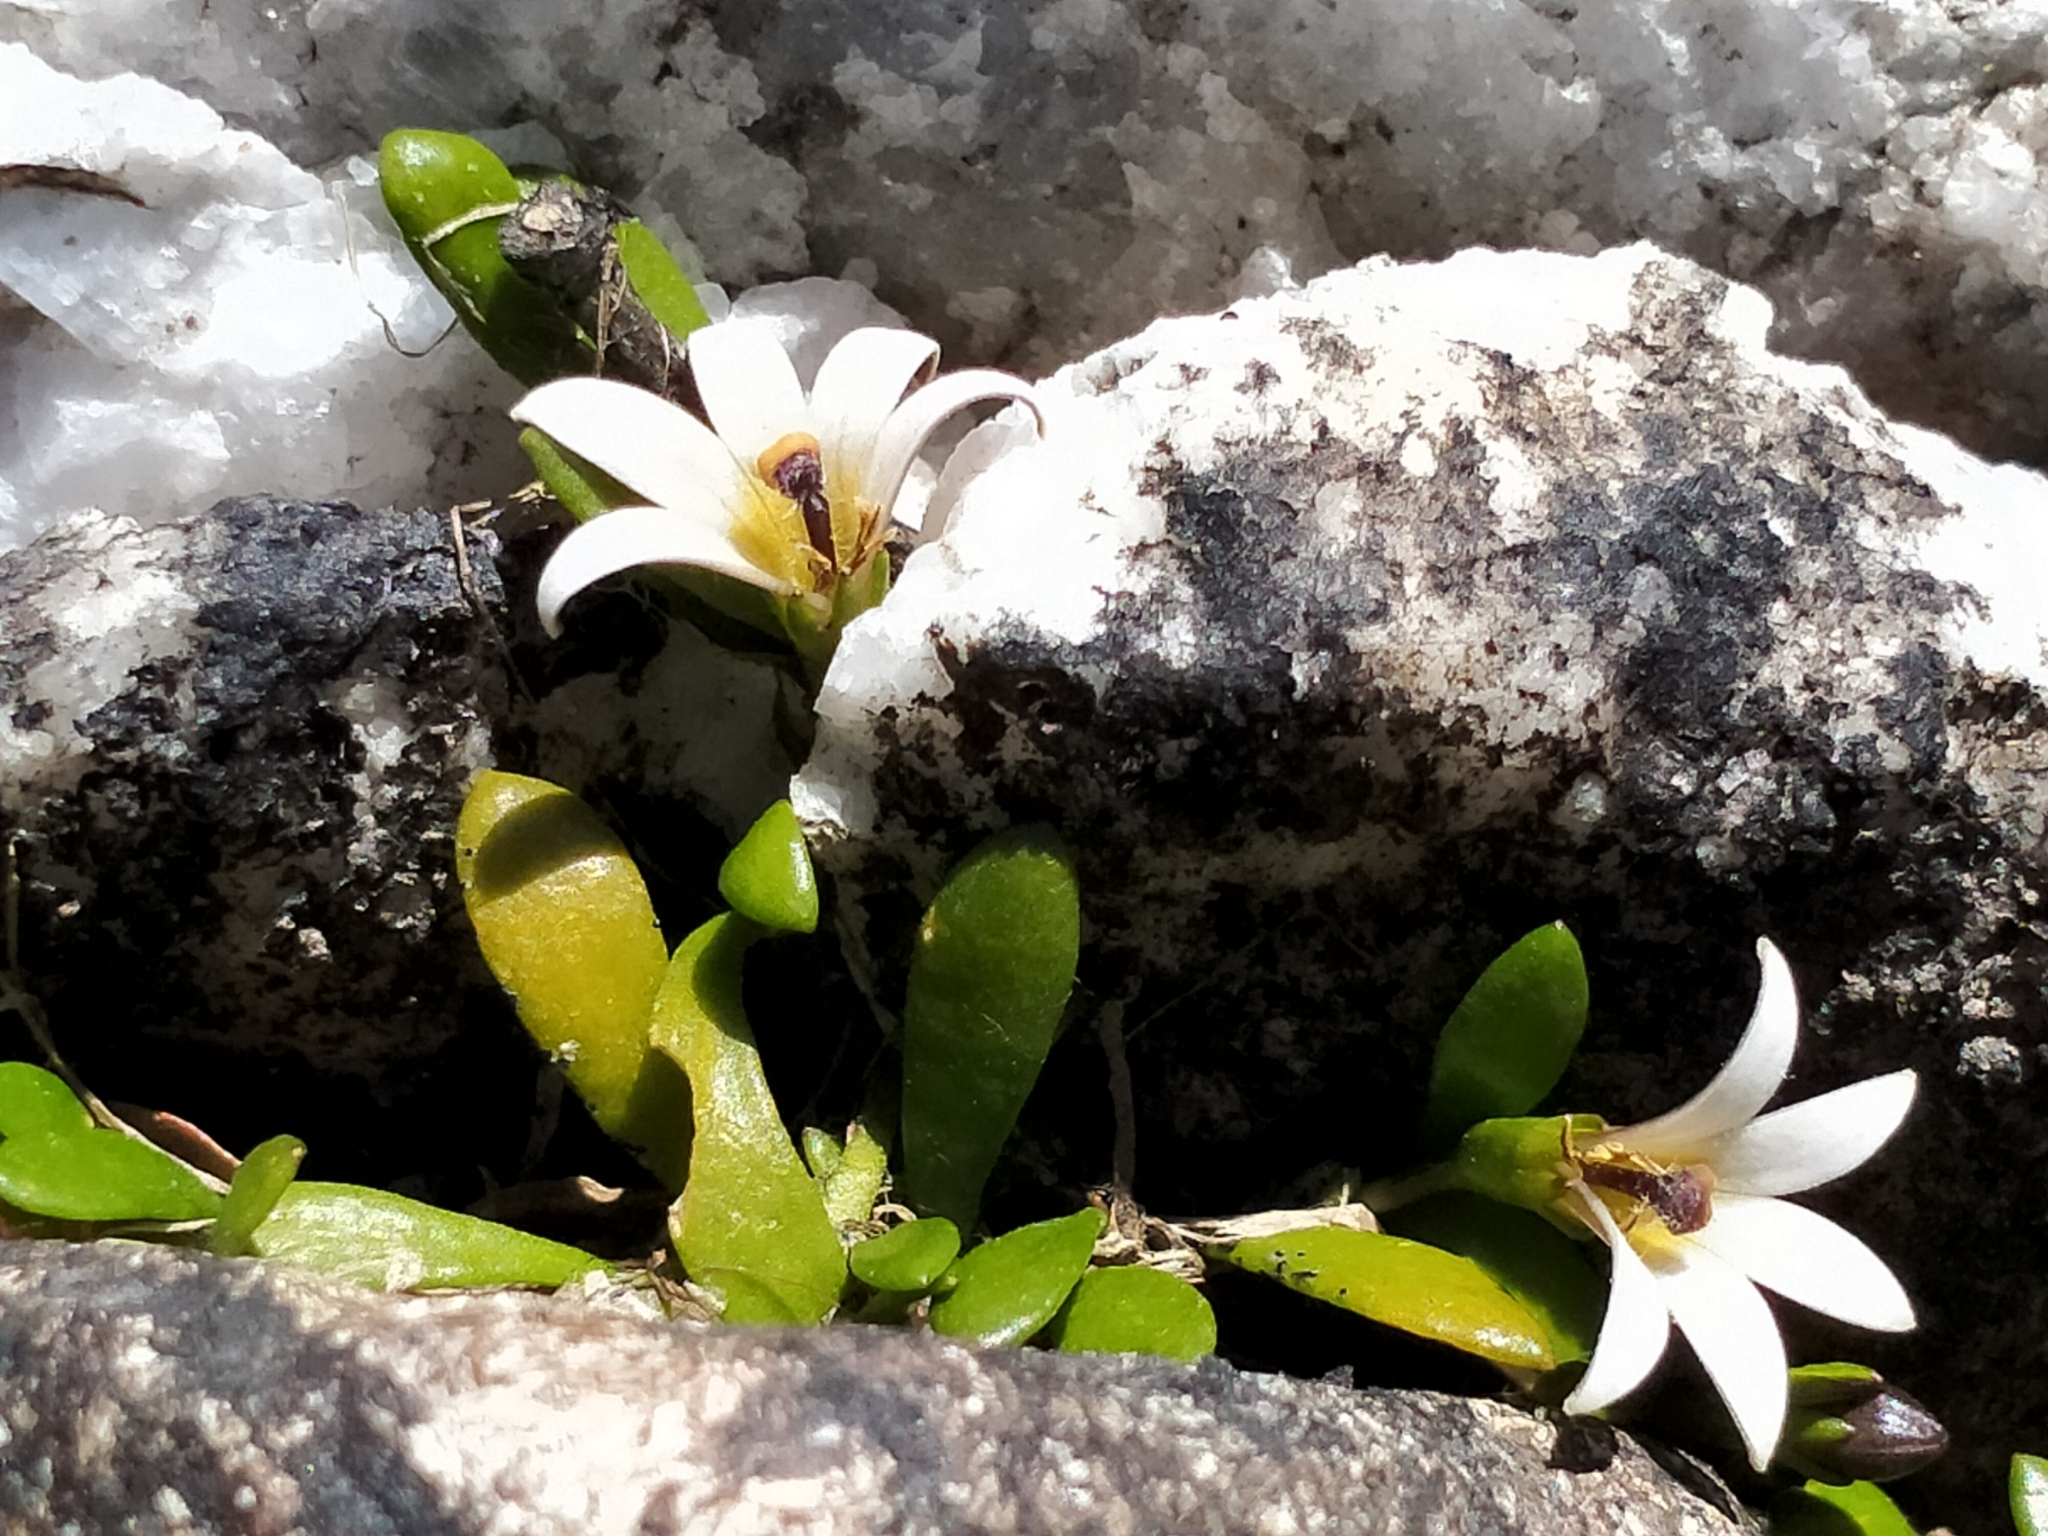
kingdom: Plantae
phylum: Tracheophyta
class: Magnoliopsida
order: Asterales
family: Goodeniaceae
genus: Goodenia
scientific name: Goodenia radicans
